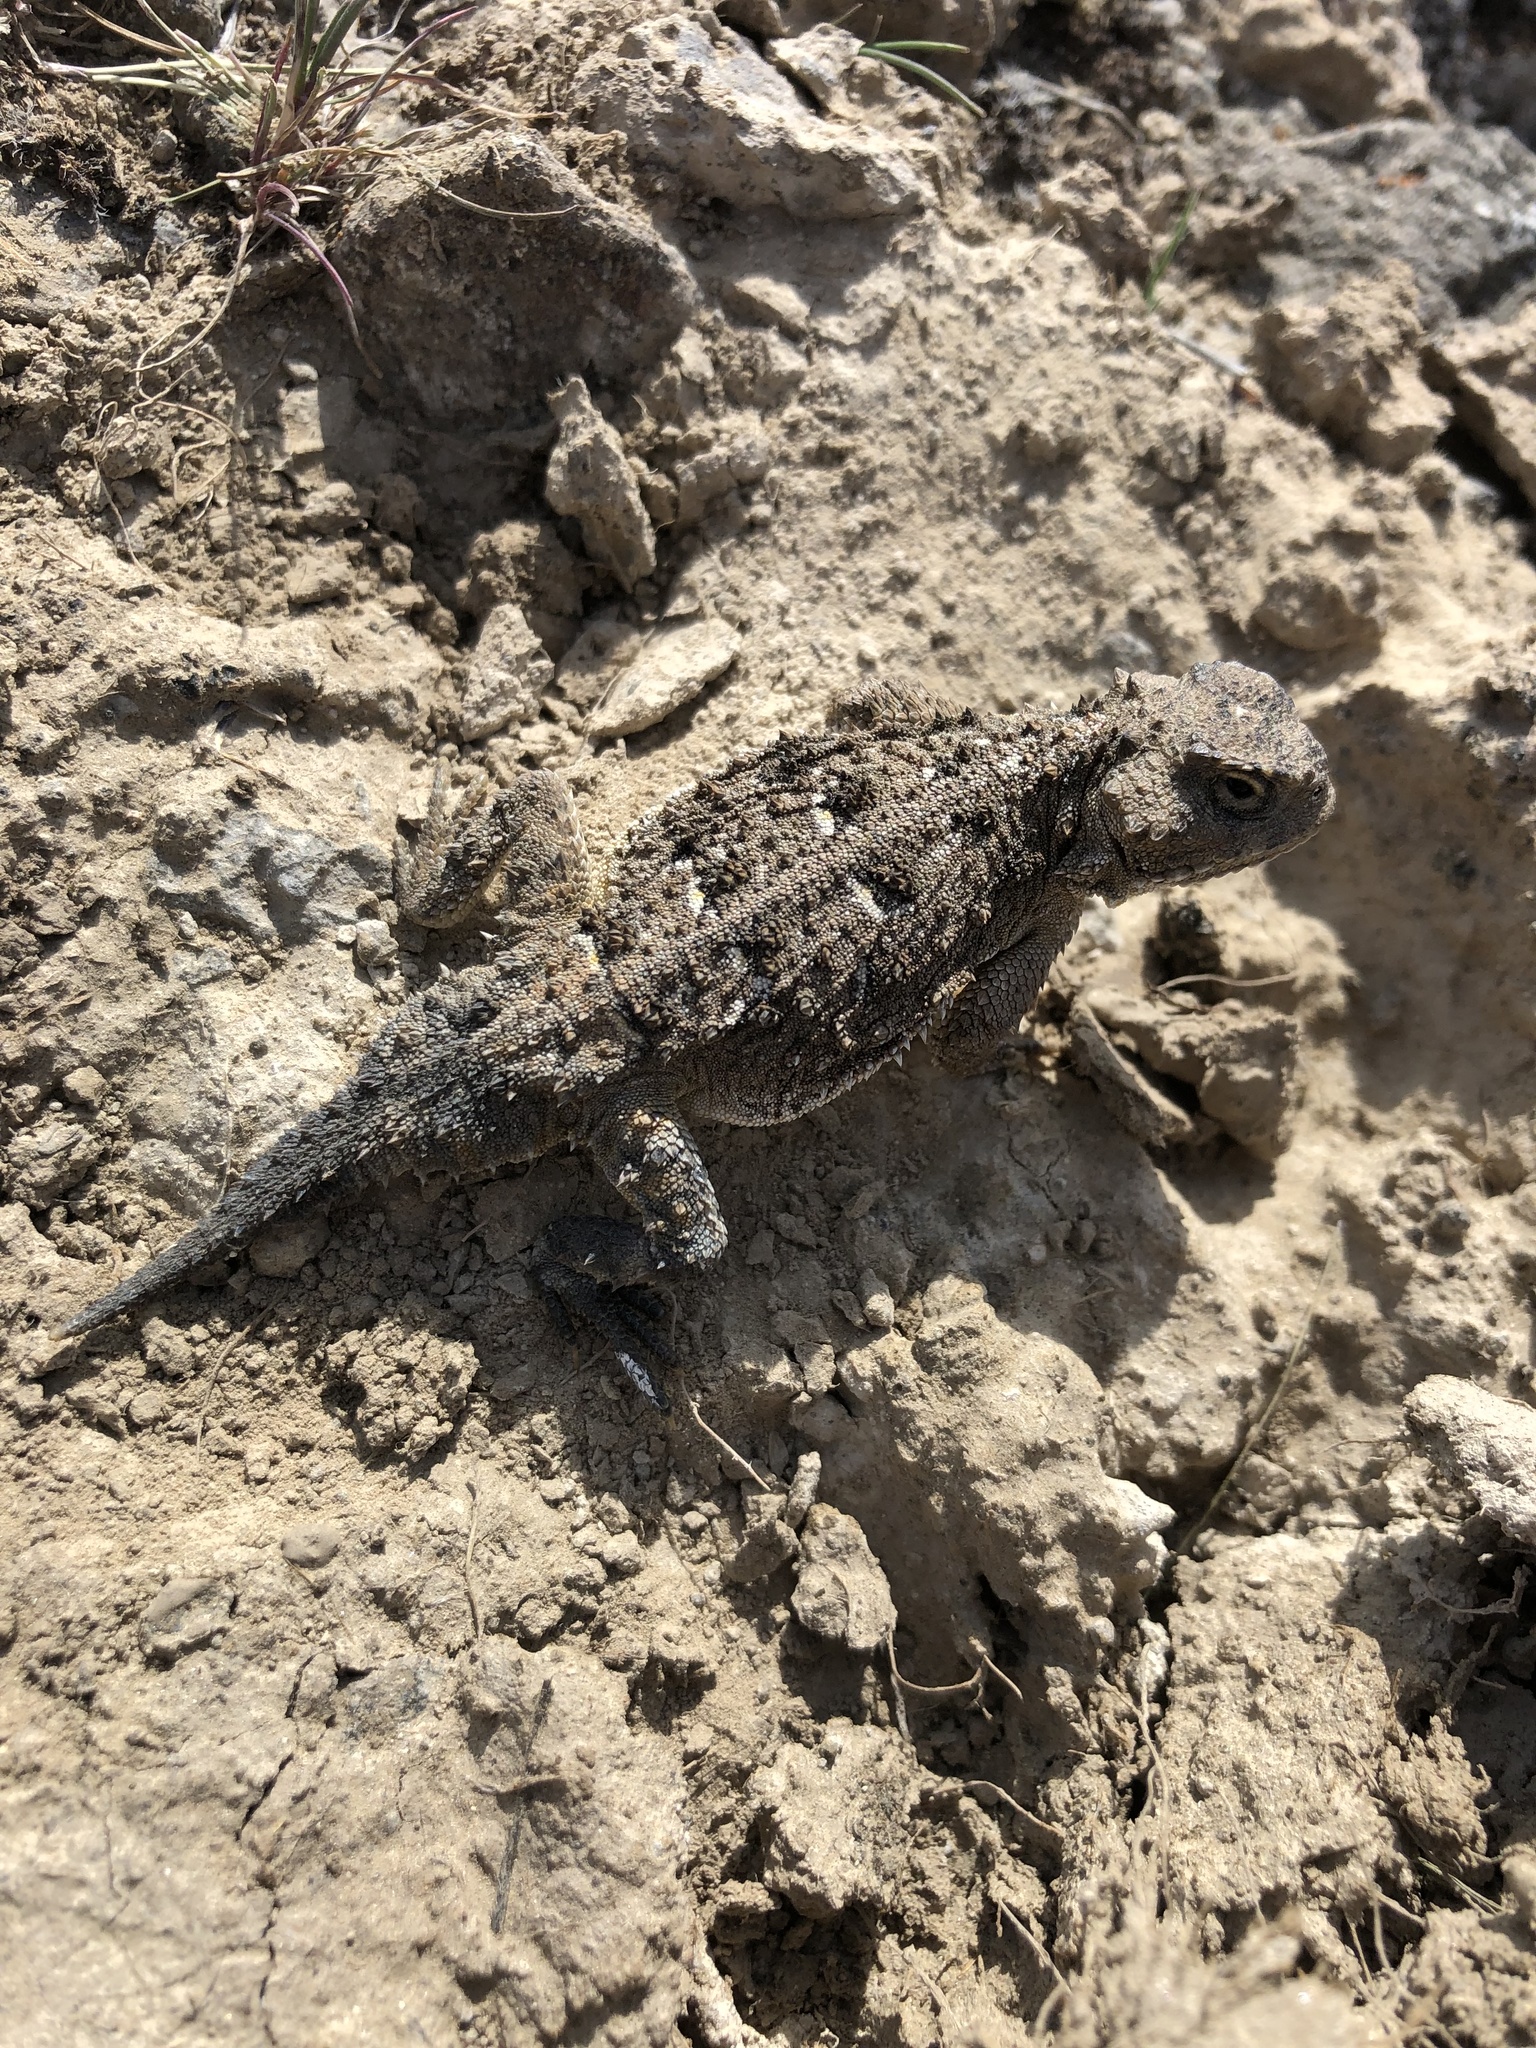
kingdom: Animalia
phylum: Chordata
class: Squamata
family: Phrynosomatidae
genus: Phrynosoma
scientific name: Phrynosoma douglasii
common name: Short-horned lizard
